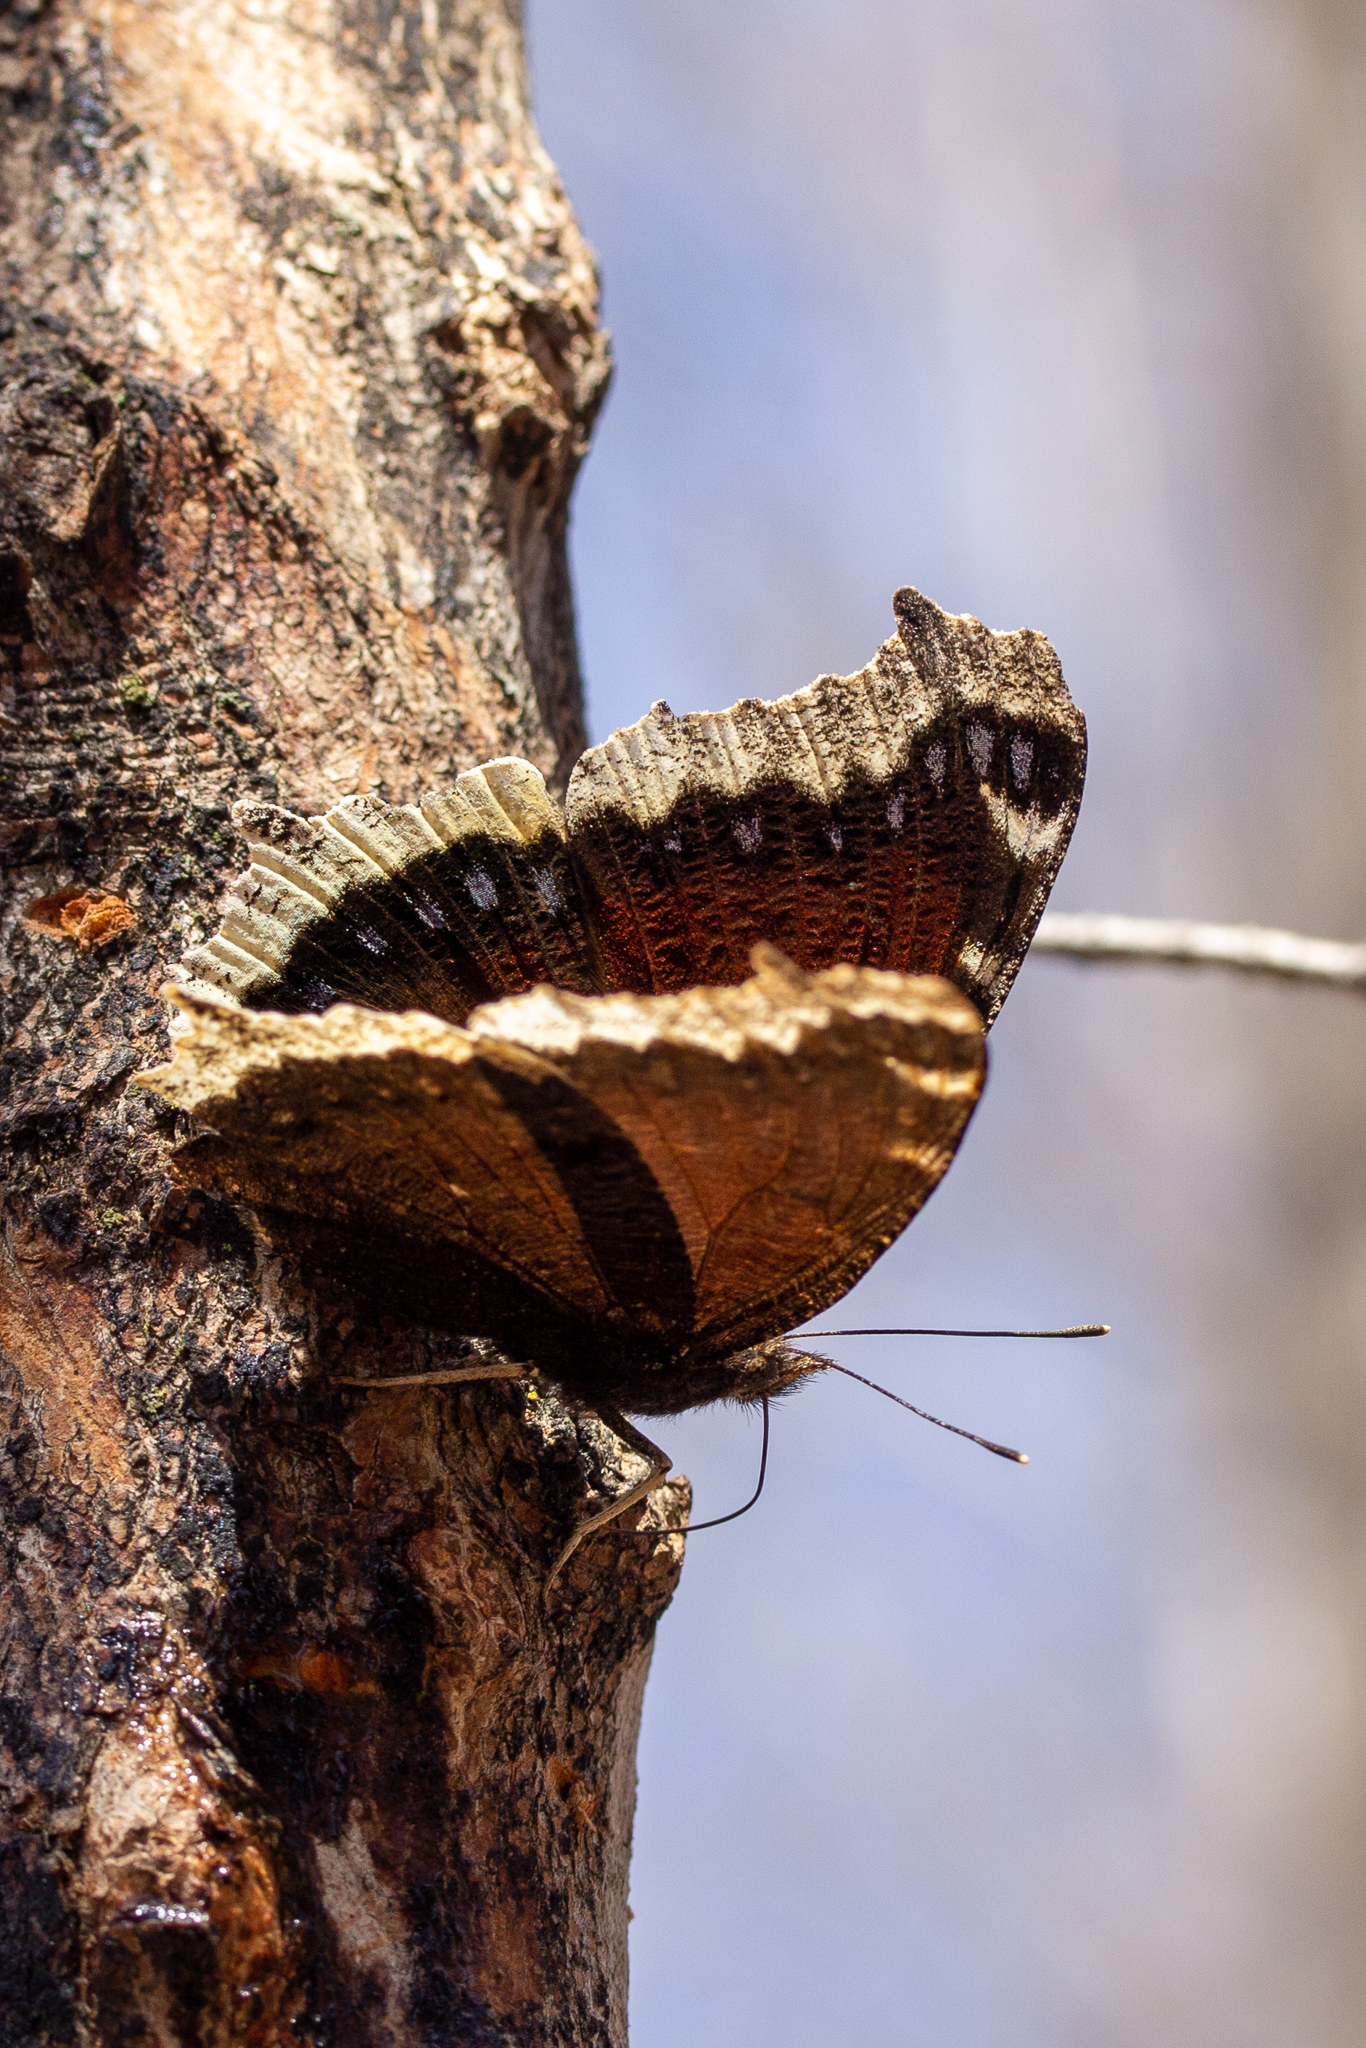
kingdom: Animalia
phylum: Arthropoda
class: Insecta
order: Lepidoptera
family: Nymphalidae
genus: Nymphalis
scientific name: Nymphalis antiopa
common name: Camberwell beauty
